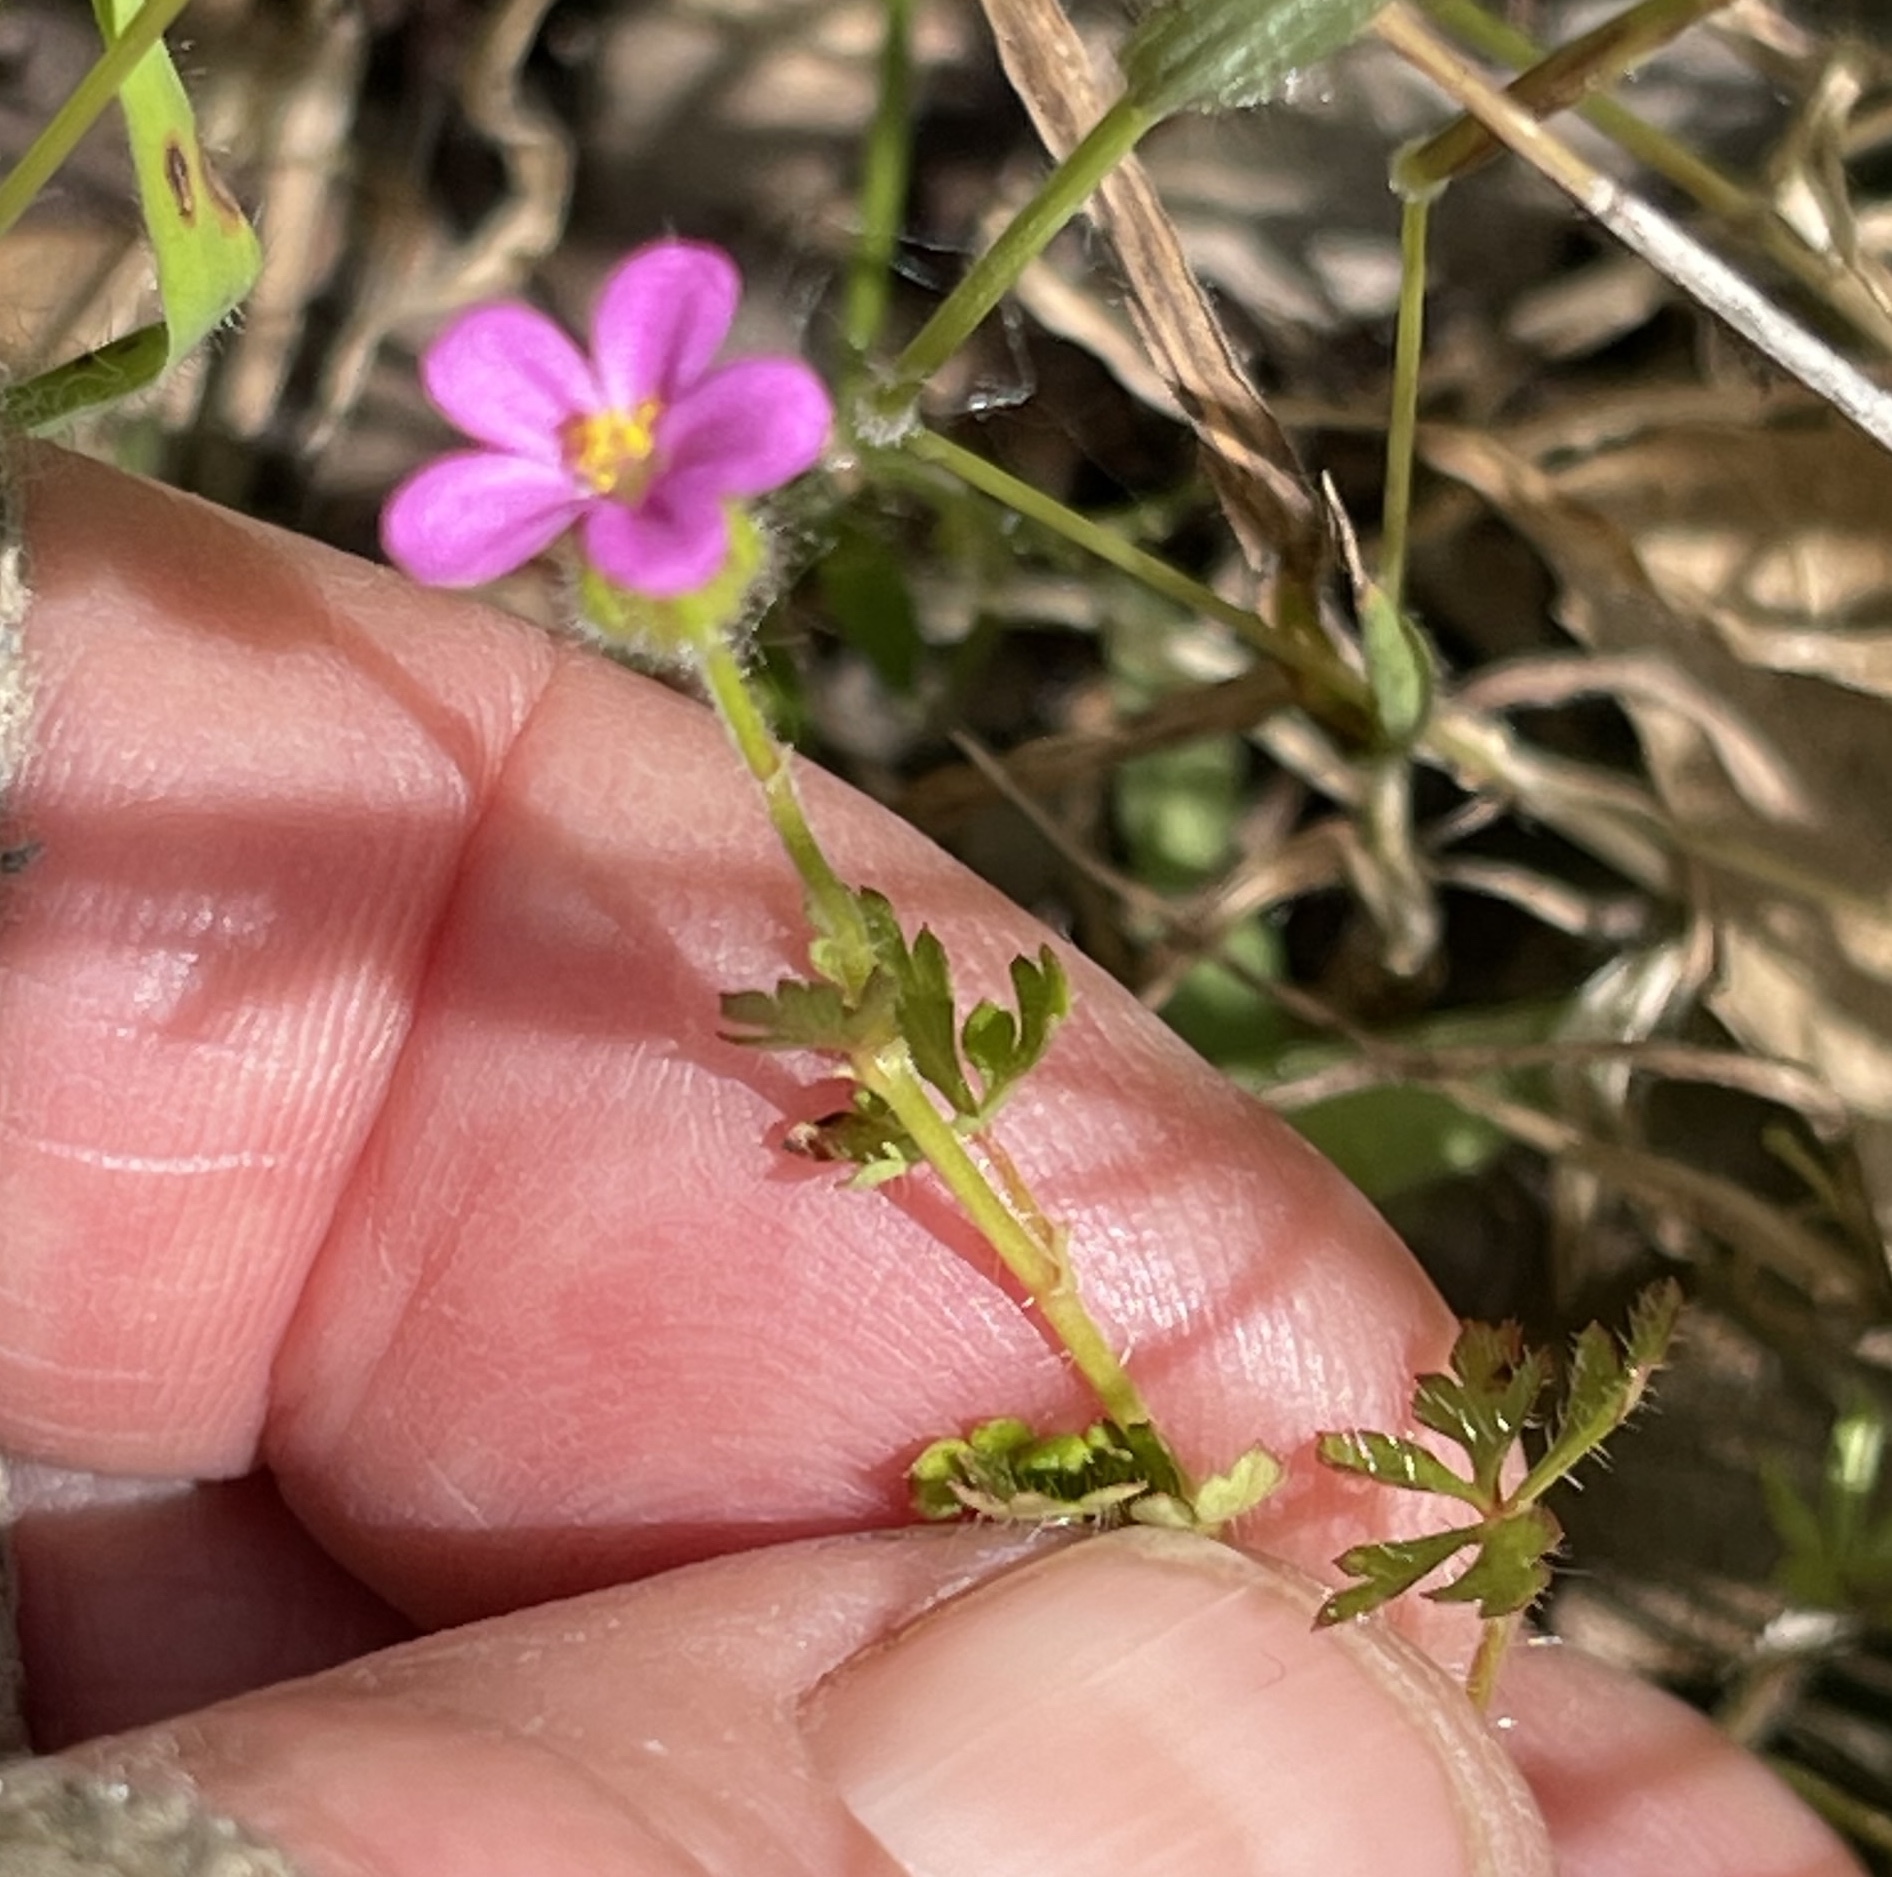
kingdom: Plantae
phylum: Tracheophyta
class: Magnoliopsida
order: Geraniales
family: Geraniaceae
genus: Geranium
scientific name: Geranium purpureum
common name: Little-robin
